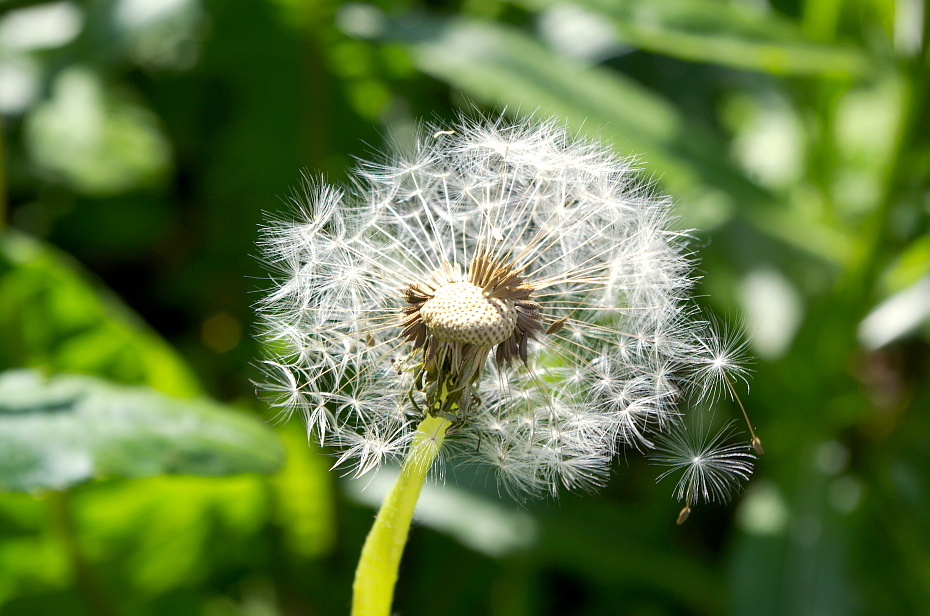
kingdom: Plantae
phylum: Tracheophyta
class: Magnoliopsida
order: Asterales
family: Asteraceae
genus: Taraxacum
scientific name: Taraxacum officinale
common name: Common dandelion
